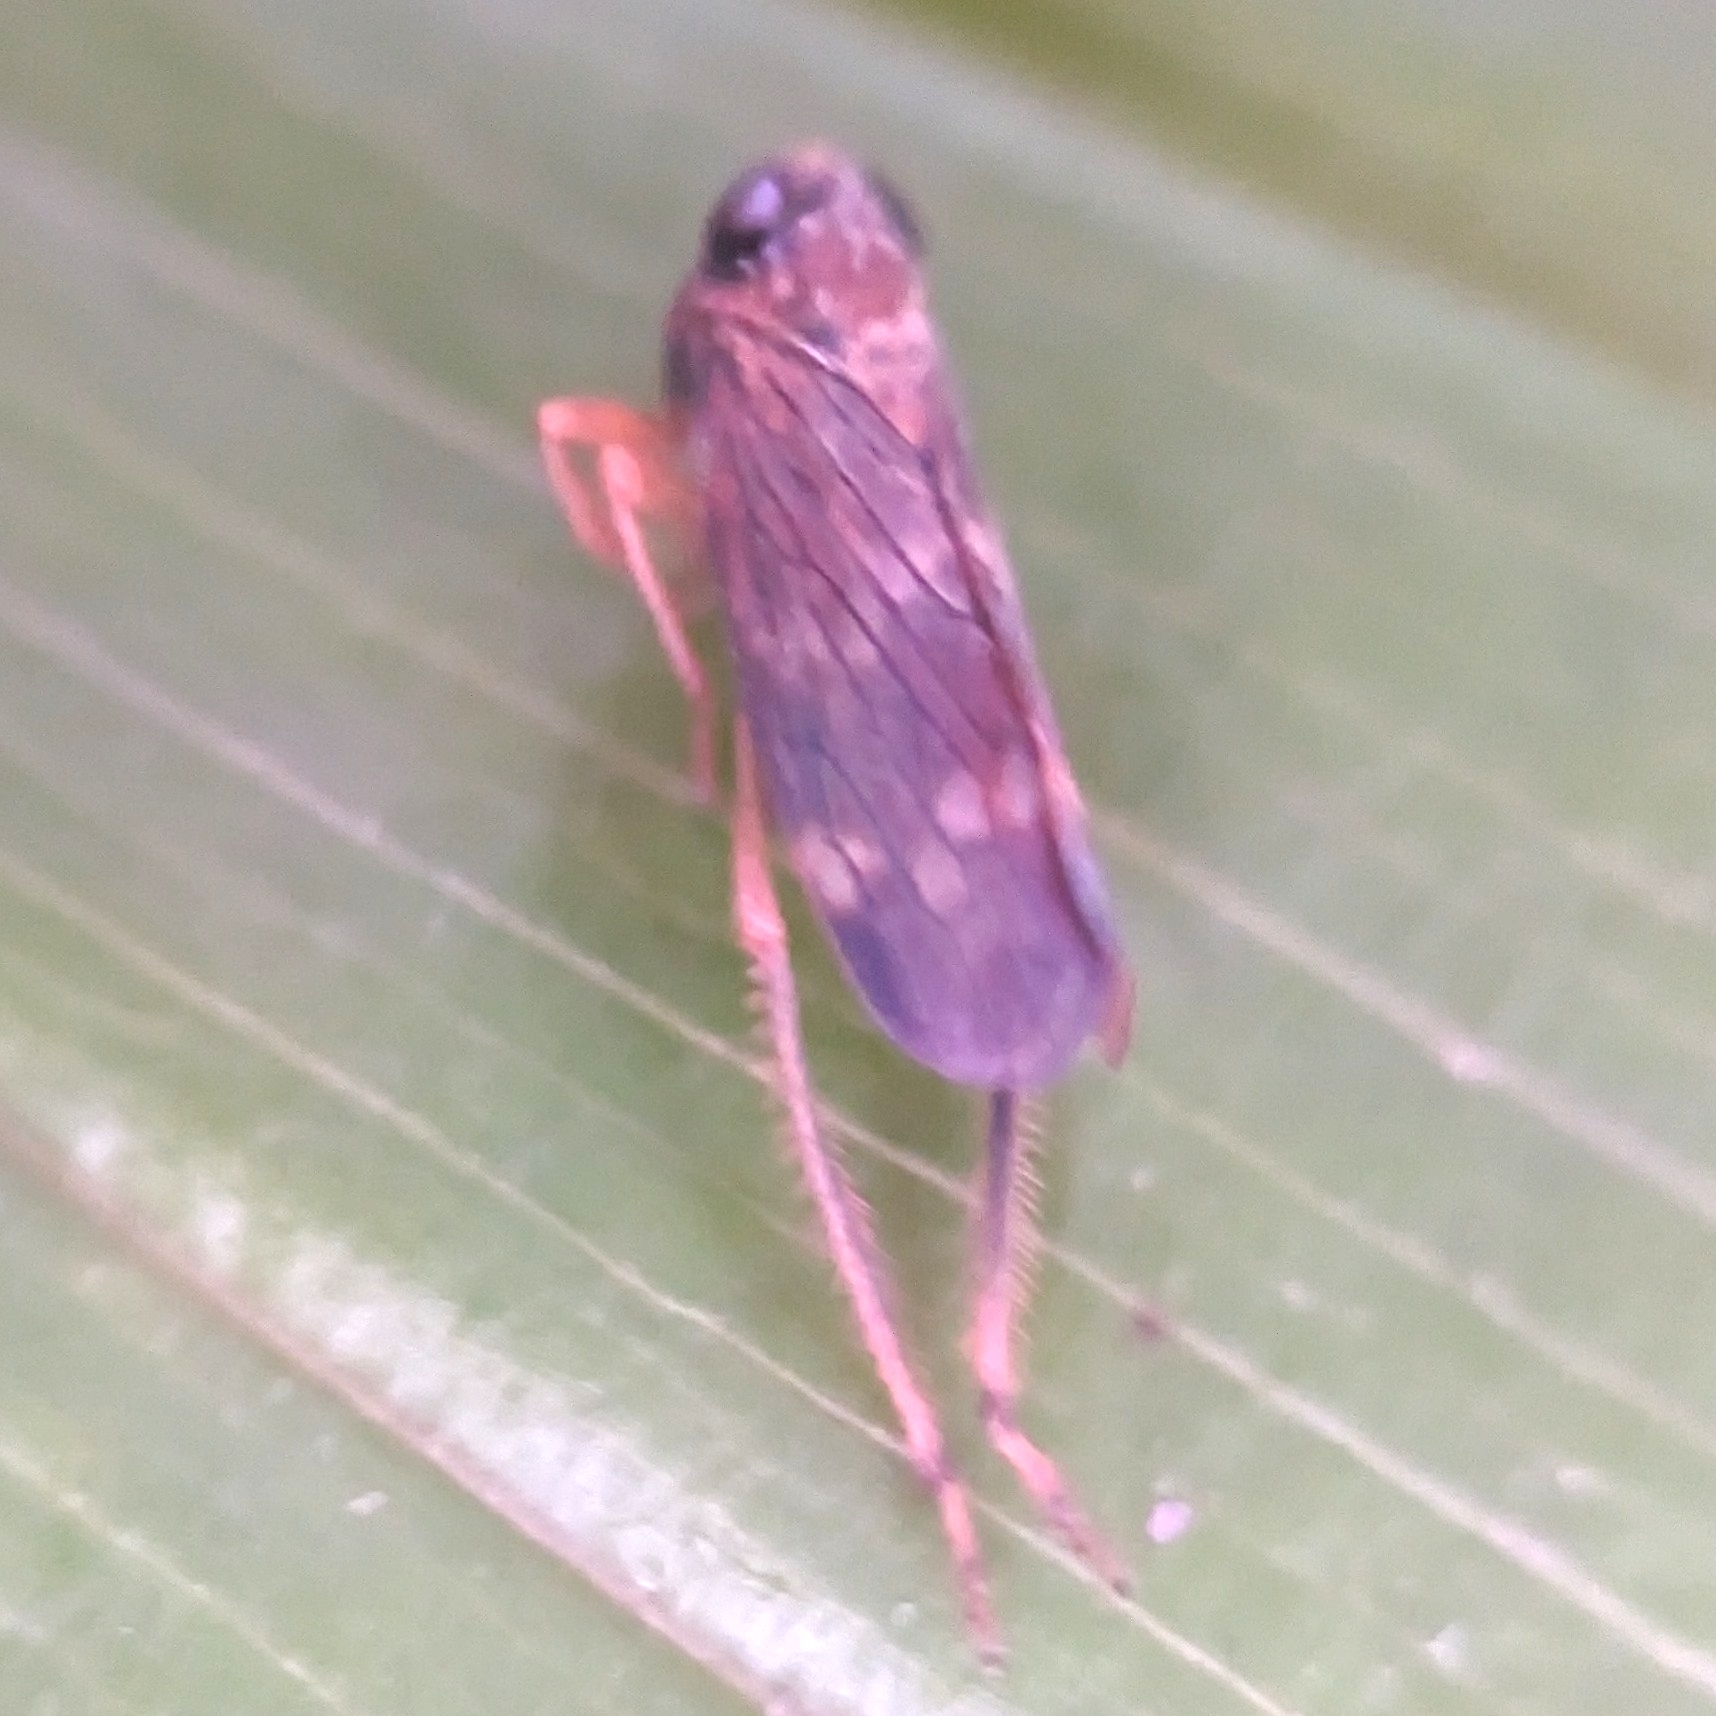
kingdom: Animalia
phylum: Arthropoda
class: Insecta
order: Hemiptera
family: Cicadellidae
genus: Jikradia
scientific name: Jikradia olitoria
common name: Coppery leafhopper
